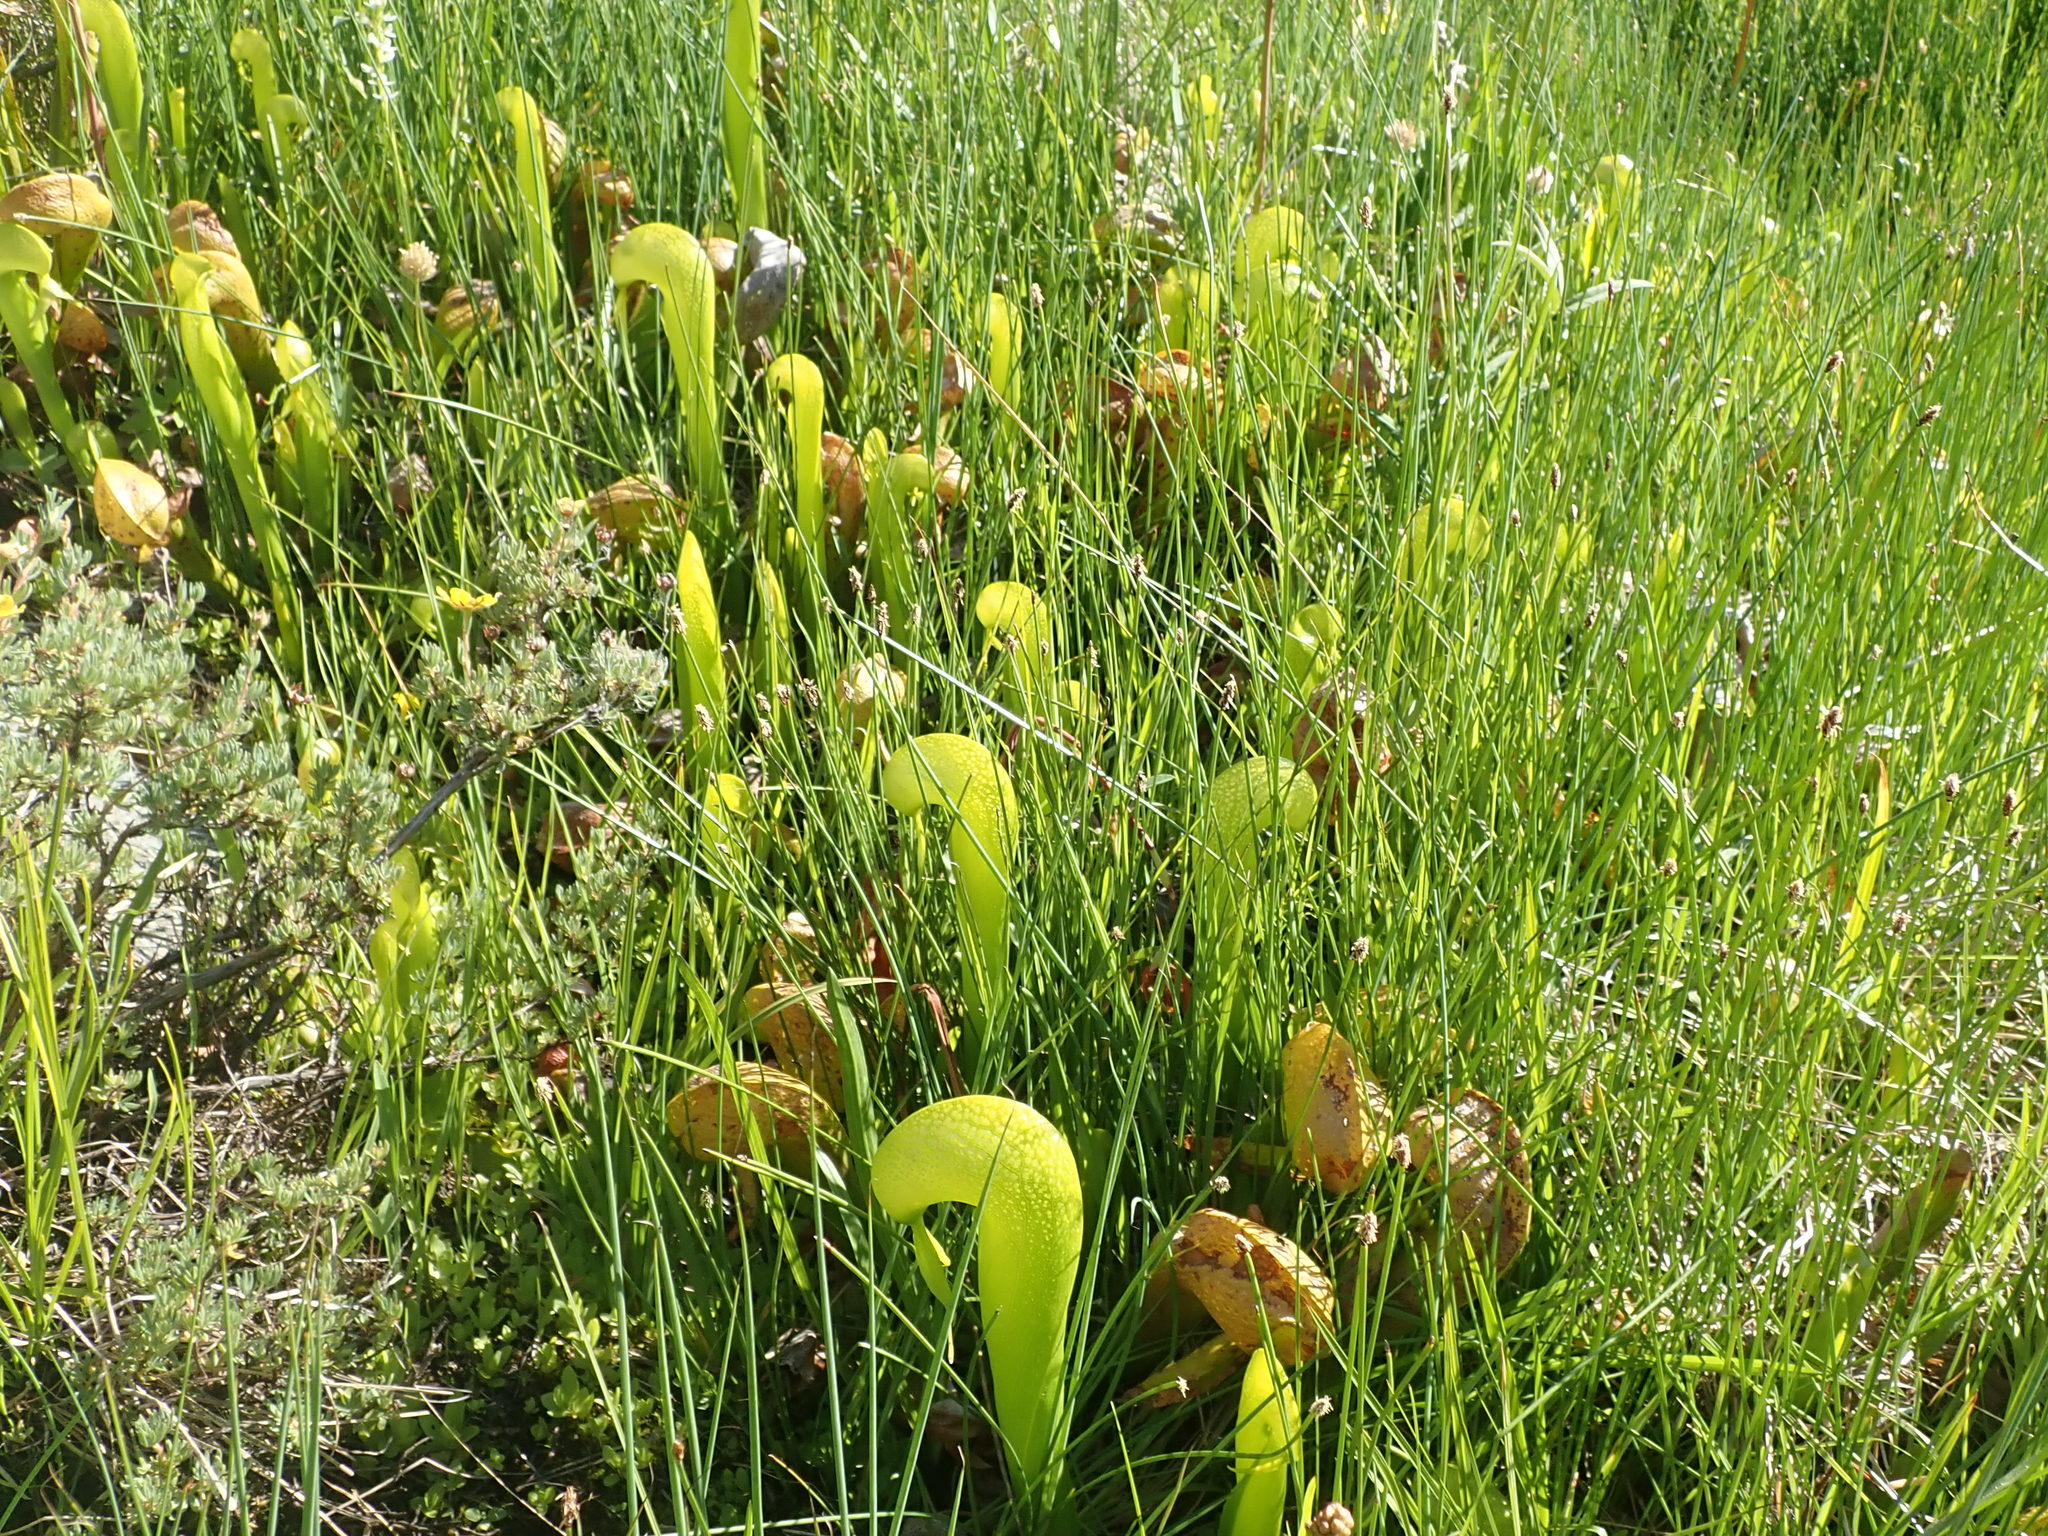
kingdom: Plantae
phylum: Tracheophyta
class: Magnoliopsida
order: Ericales
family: Sarraceniaceae
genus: Darlingtonia
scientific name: Darlingtonia californica
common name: California pitcher plant
